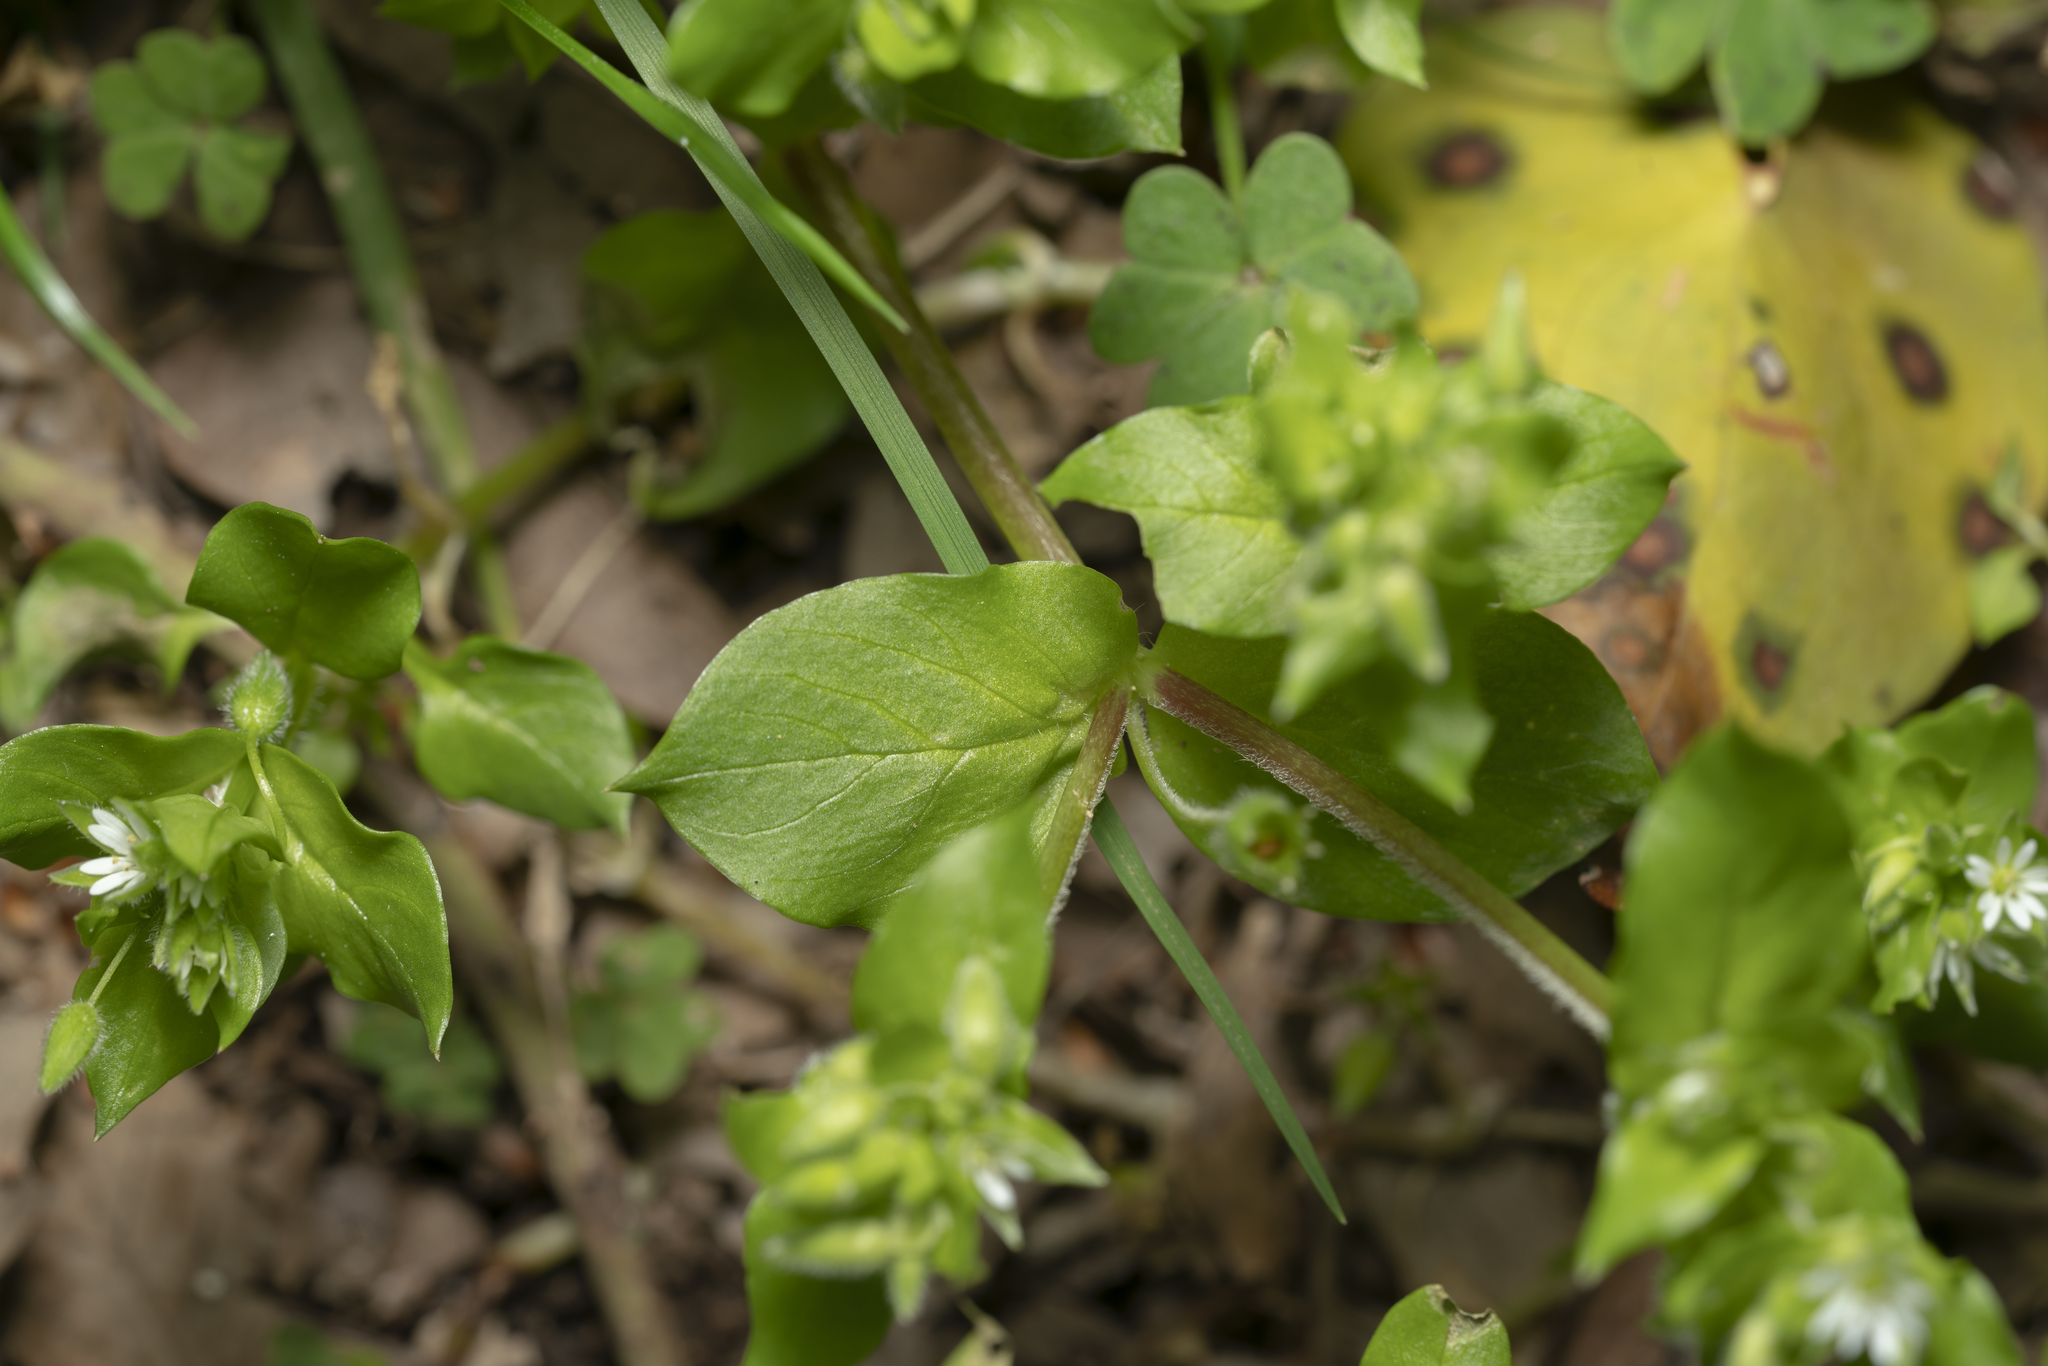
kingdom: Plantae
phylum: Tracheophyta
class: Magnoliopsida
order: Caryophyllales
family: Caryophyllaceae
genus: Stellaria
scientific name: Stellaria media
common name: Common chickweed
